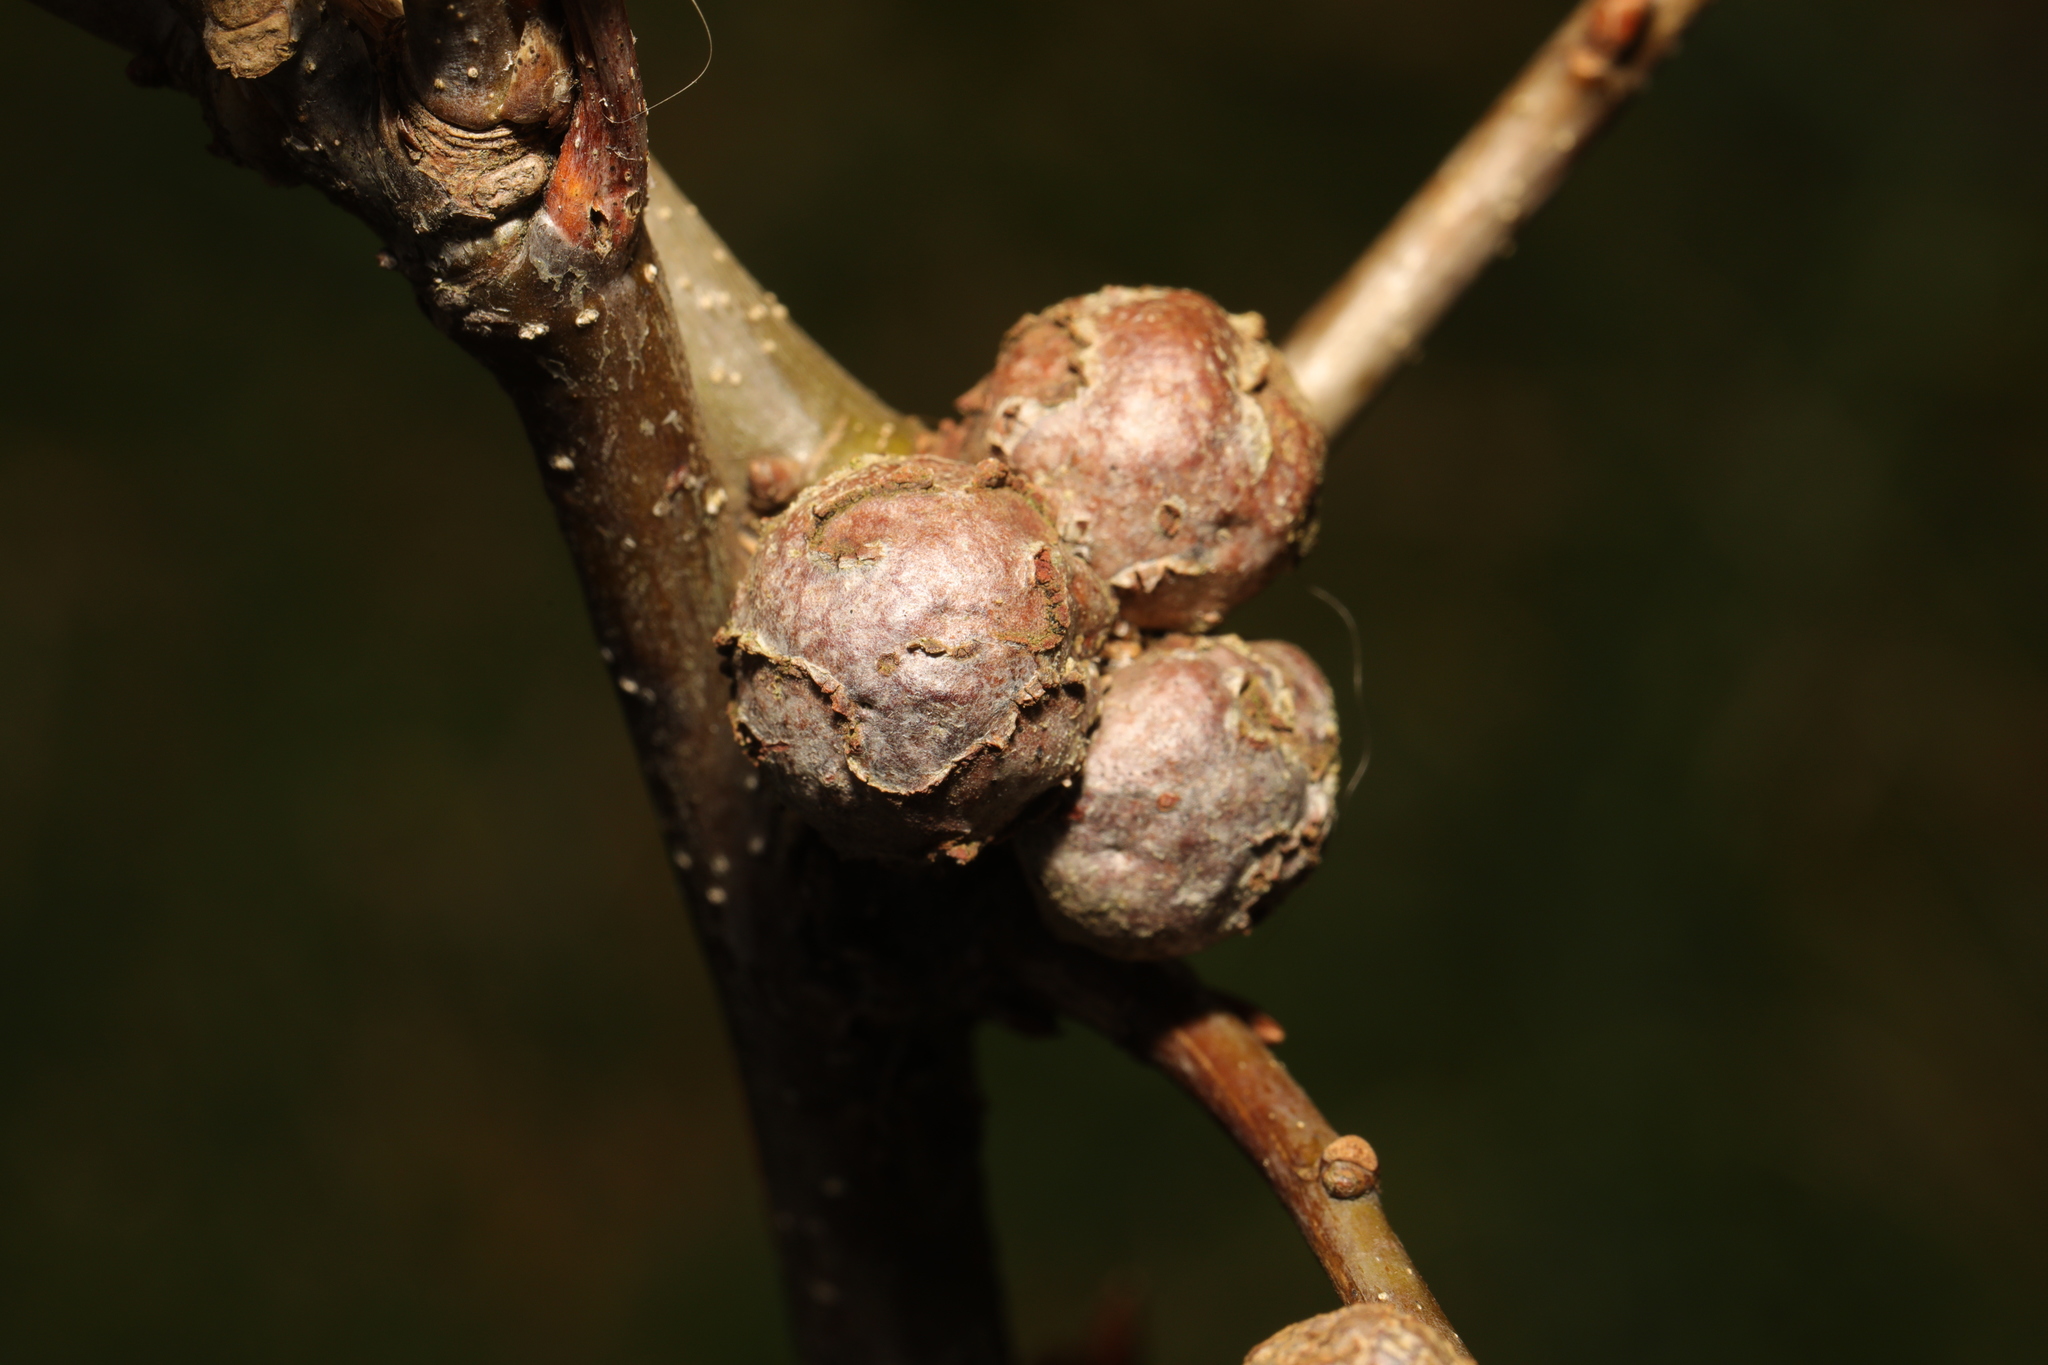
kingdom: Animalia
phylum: Arthropoda
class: Insecta
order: Hymenoptera
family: Cynipidae
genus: Andricus
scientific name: Andricus lignicolus
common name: Cola-nut gall
